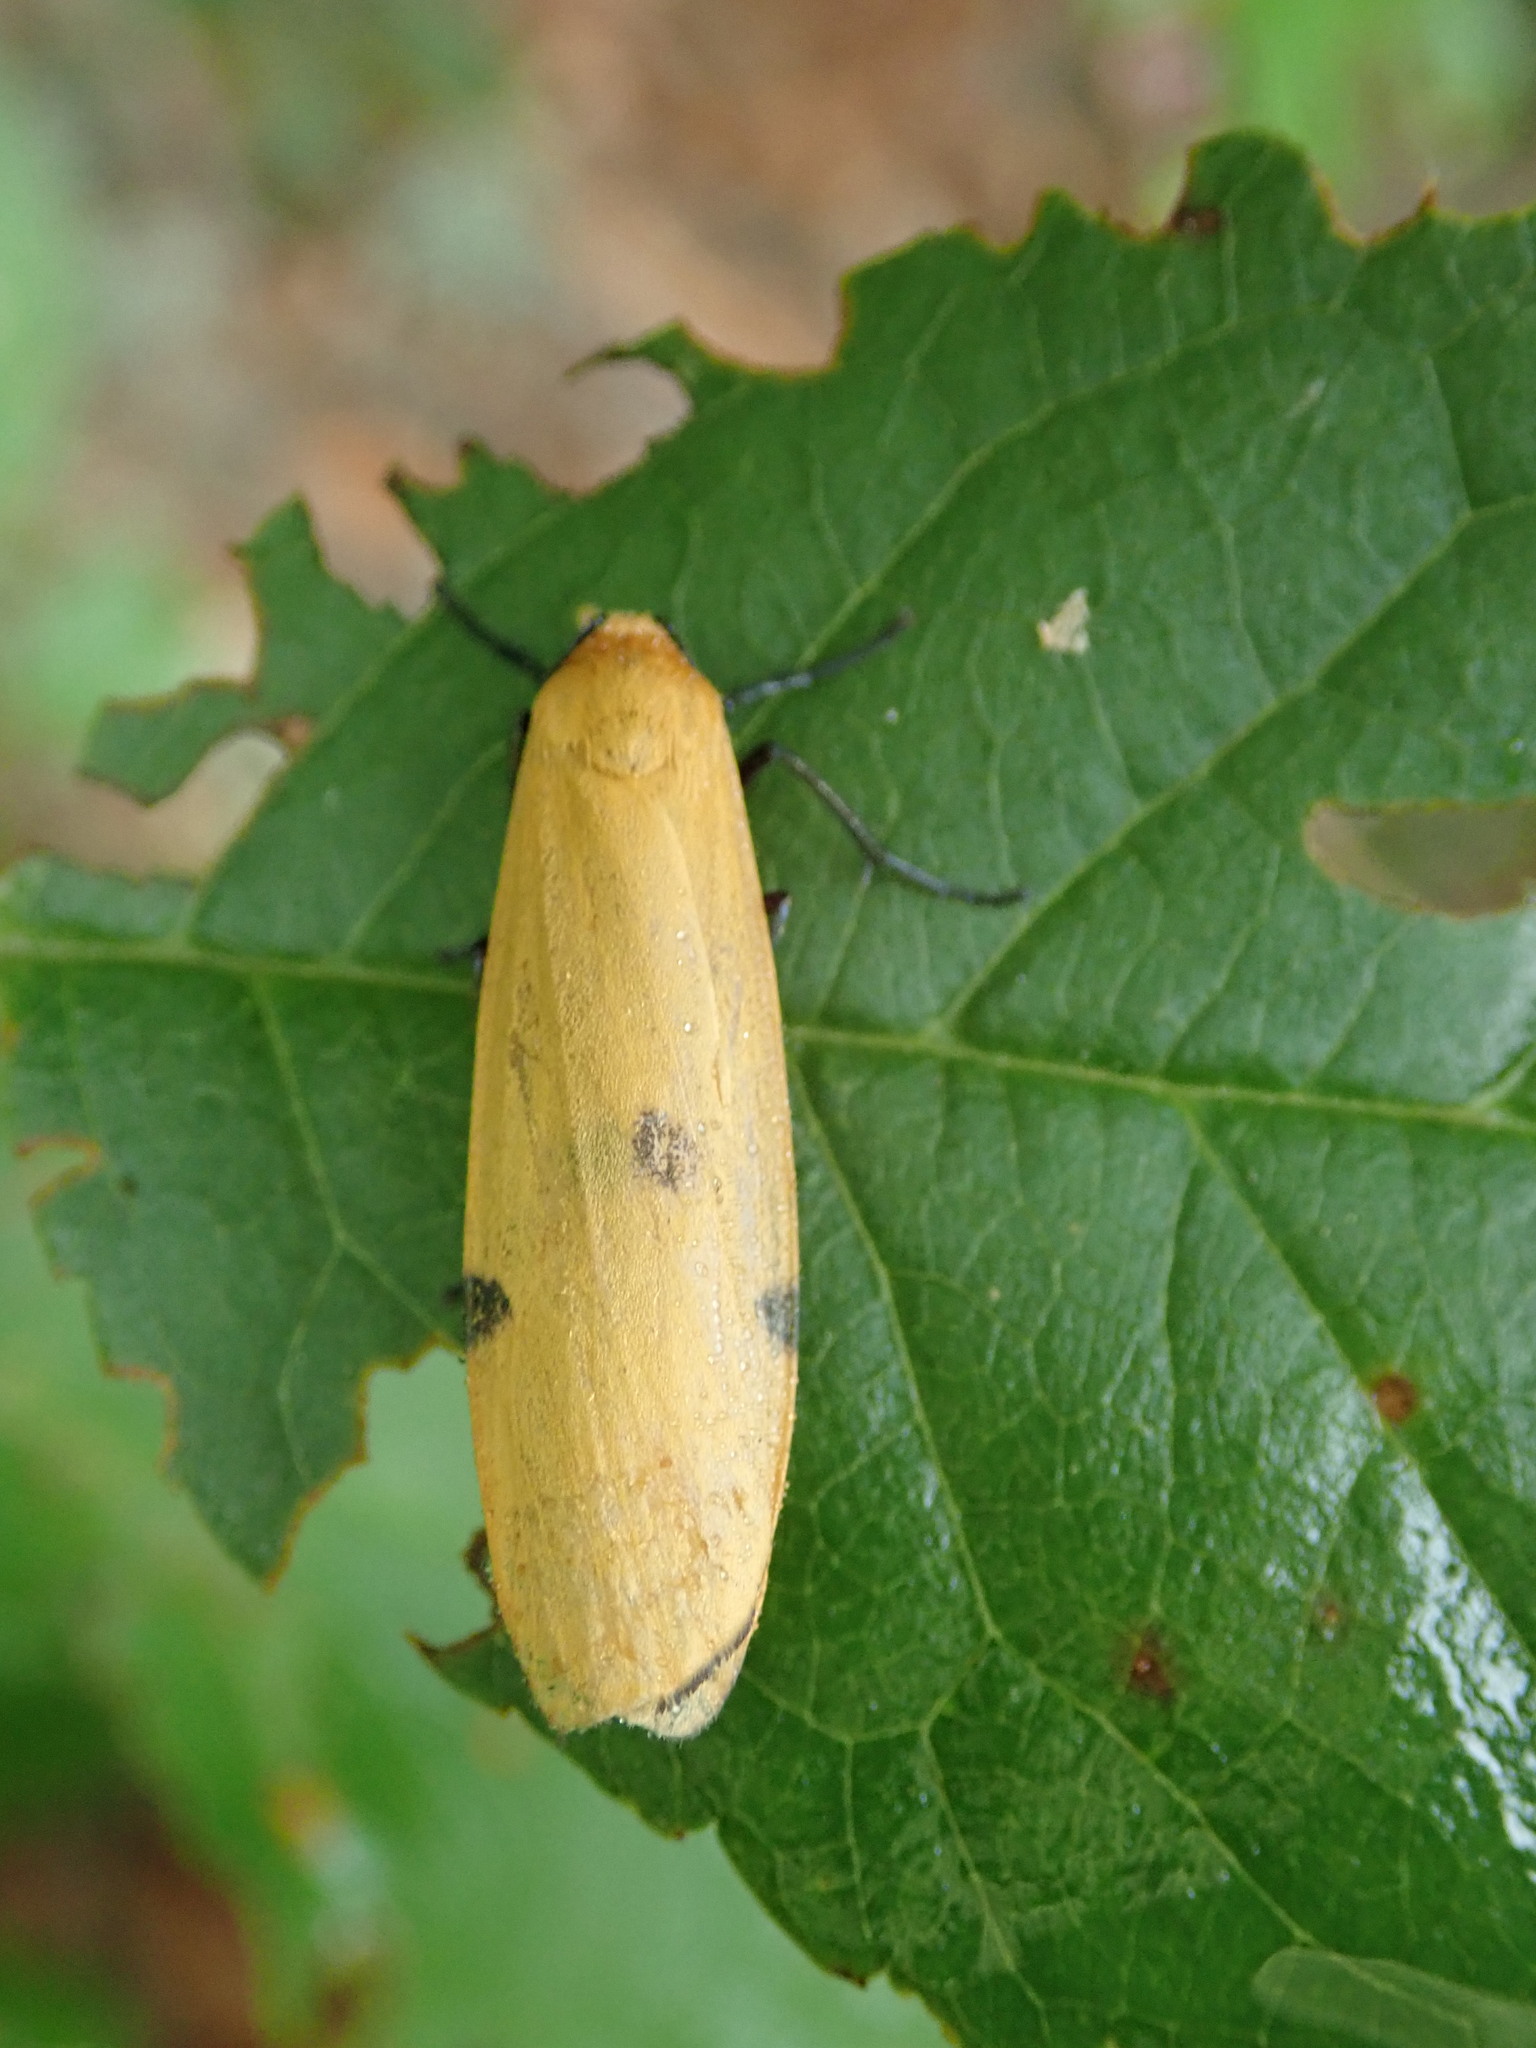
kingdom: Animalia
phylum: Arthropoda
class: Insecta
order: Lepidoptera
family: Erebidae
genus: Lithosia
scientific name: Lithosia quadra
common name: Four-spotted footman
